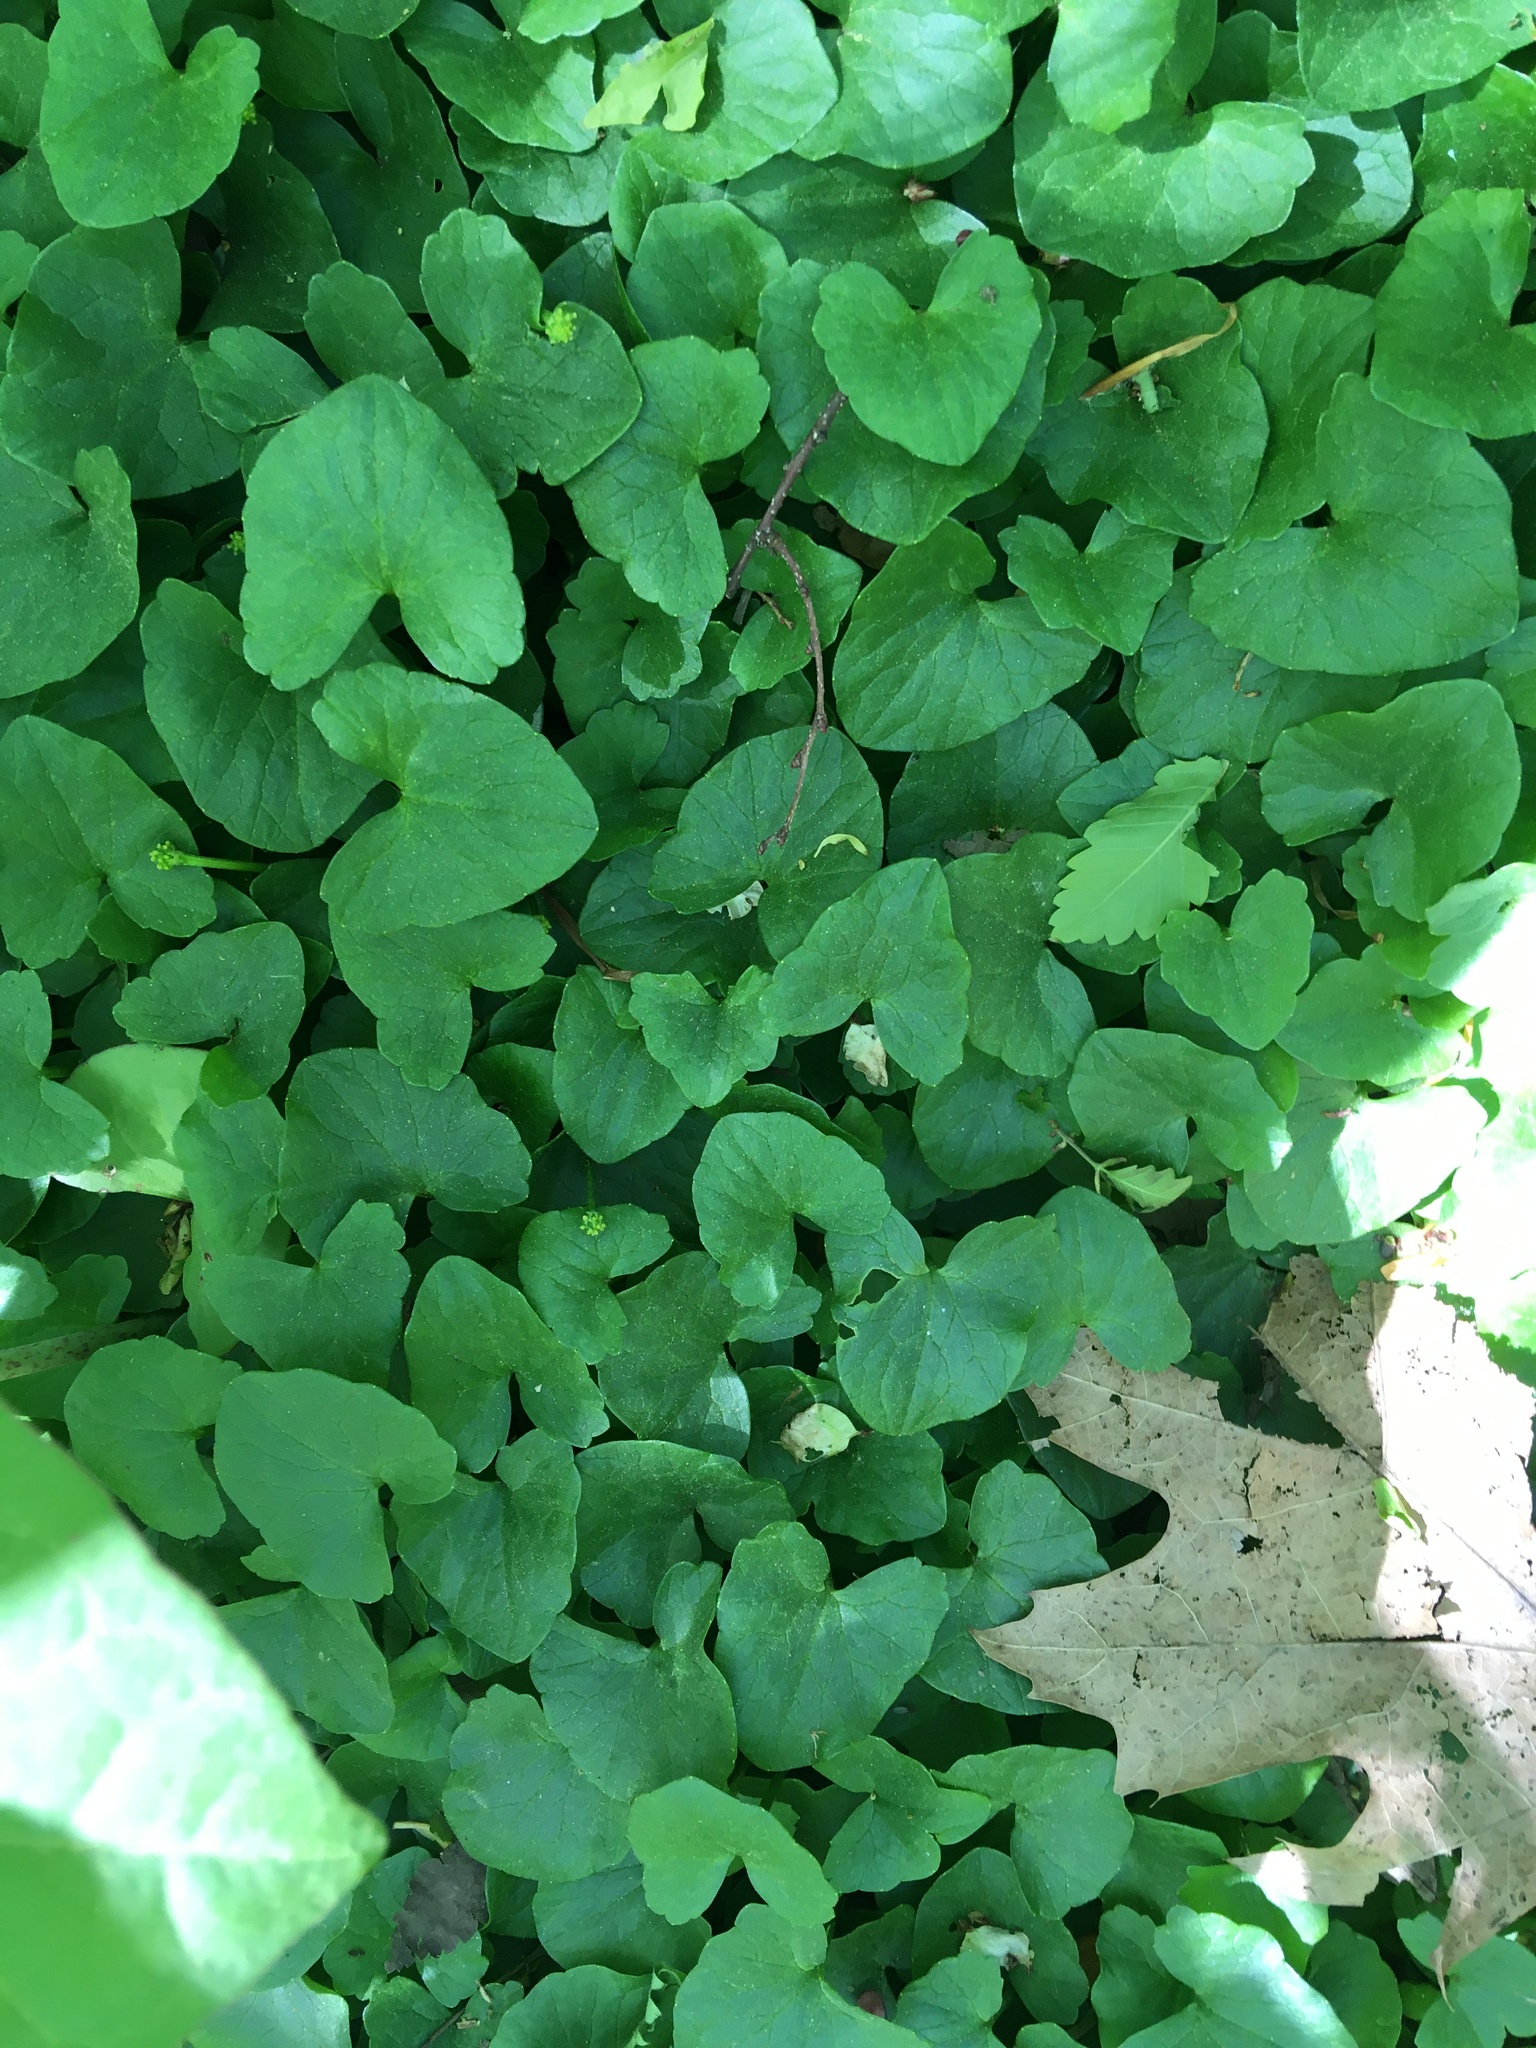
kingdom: Plantae
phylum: Tracheophyta
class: Magnoliopsida
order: Ranunculales
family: Ranunculaceae
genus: Ficaria
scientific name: Ficaria verna
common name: Lesser celandine
